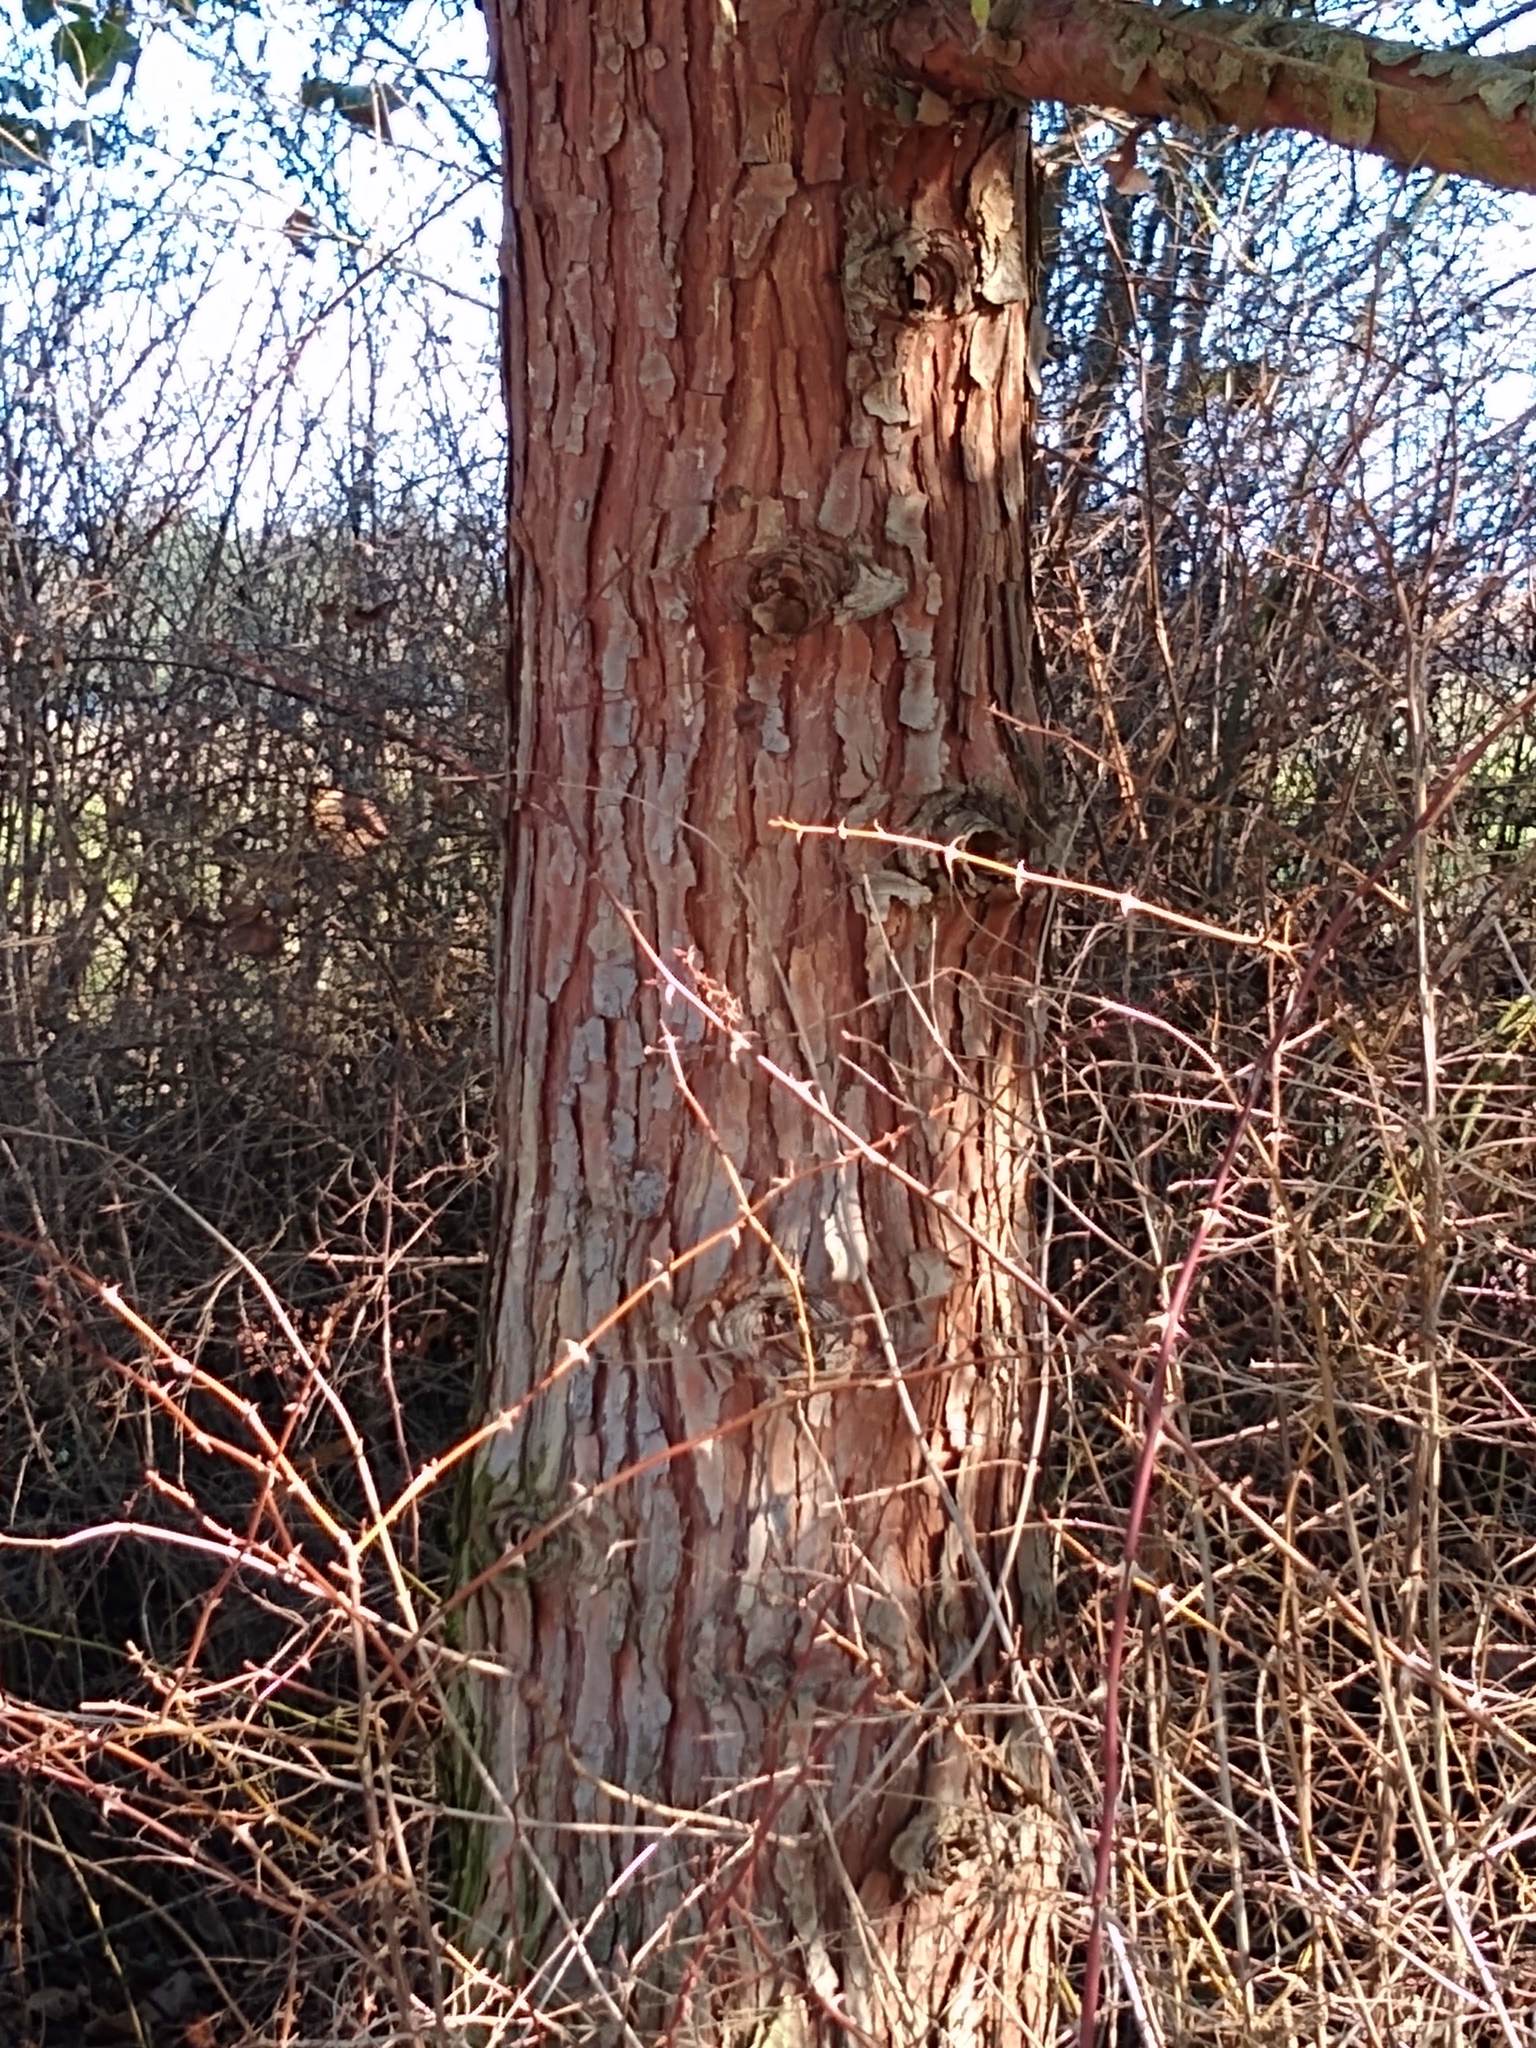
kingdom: Plantae
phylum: Tracheophyta
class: Pinopsida
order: Pinales
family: Cupressaceae
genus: Calocedrus
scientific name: Calocedrus decurrens
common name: Californian incense-cedar
